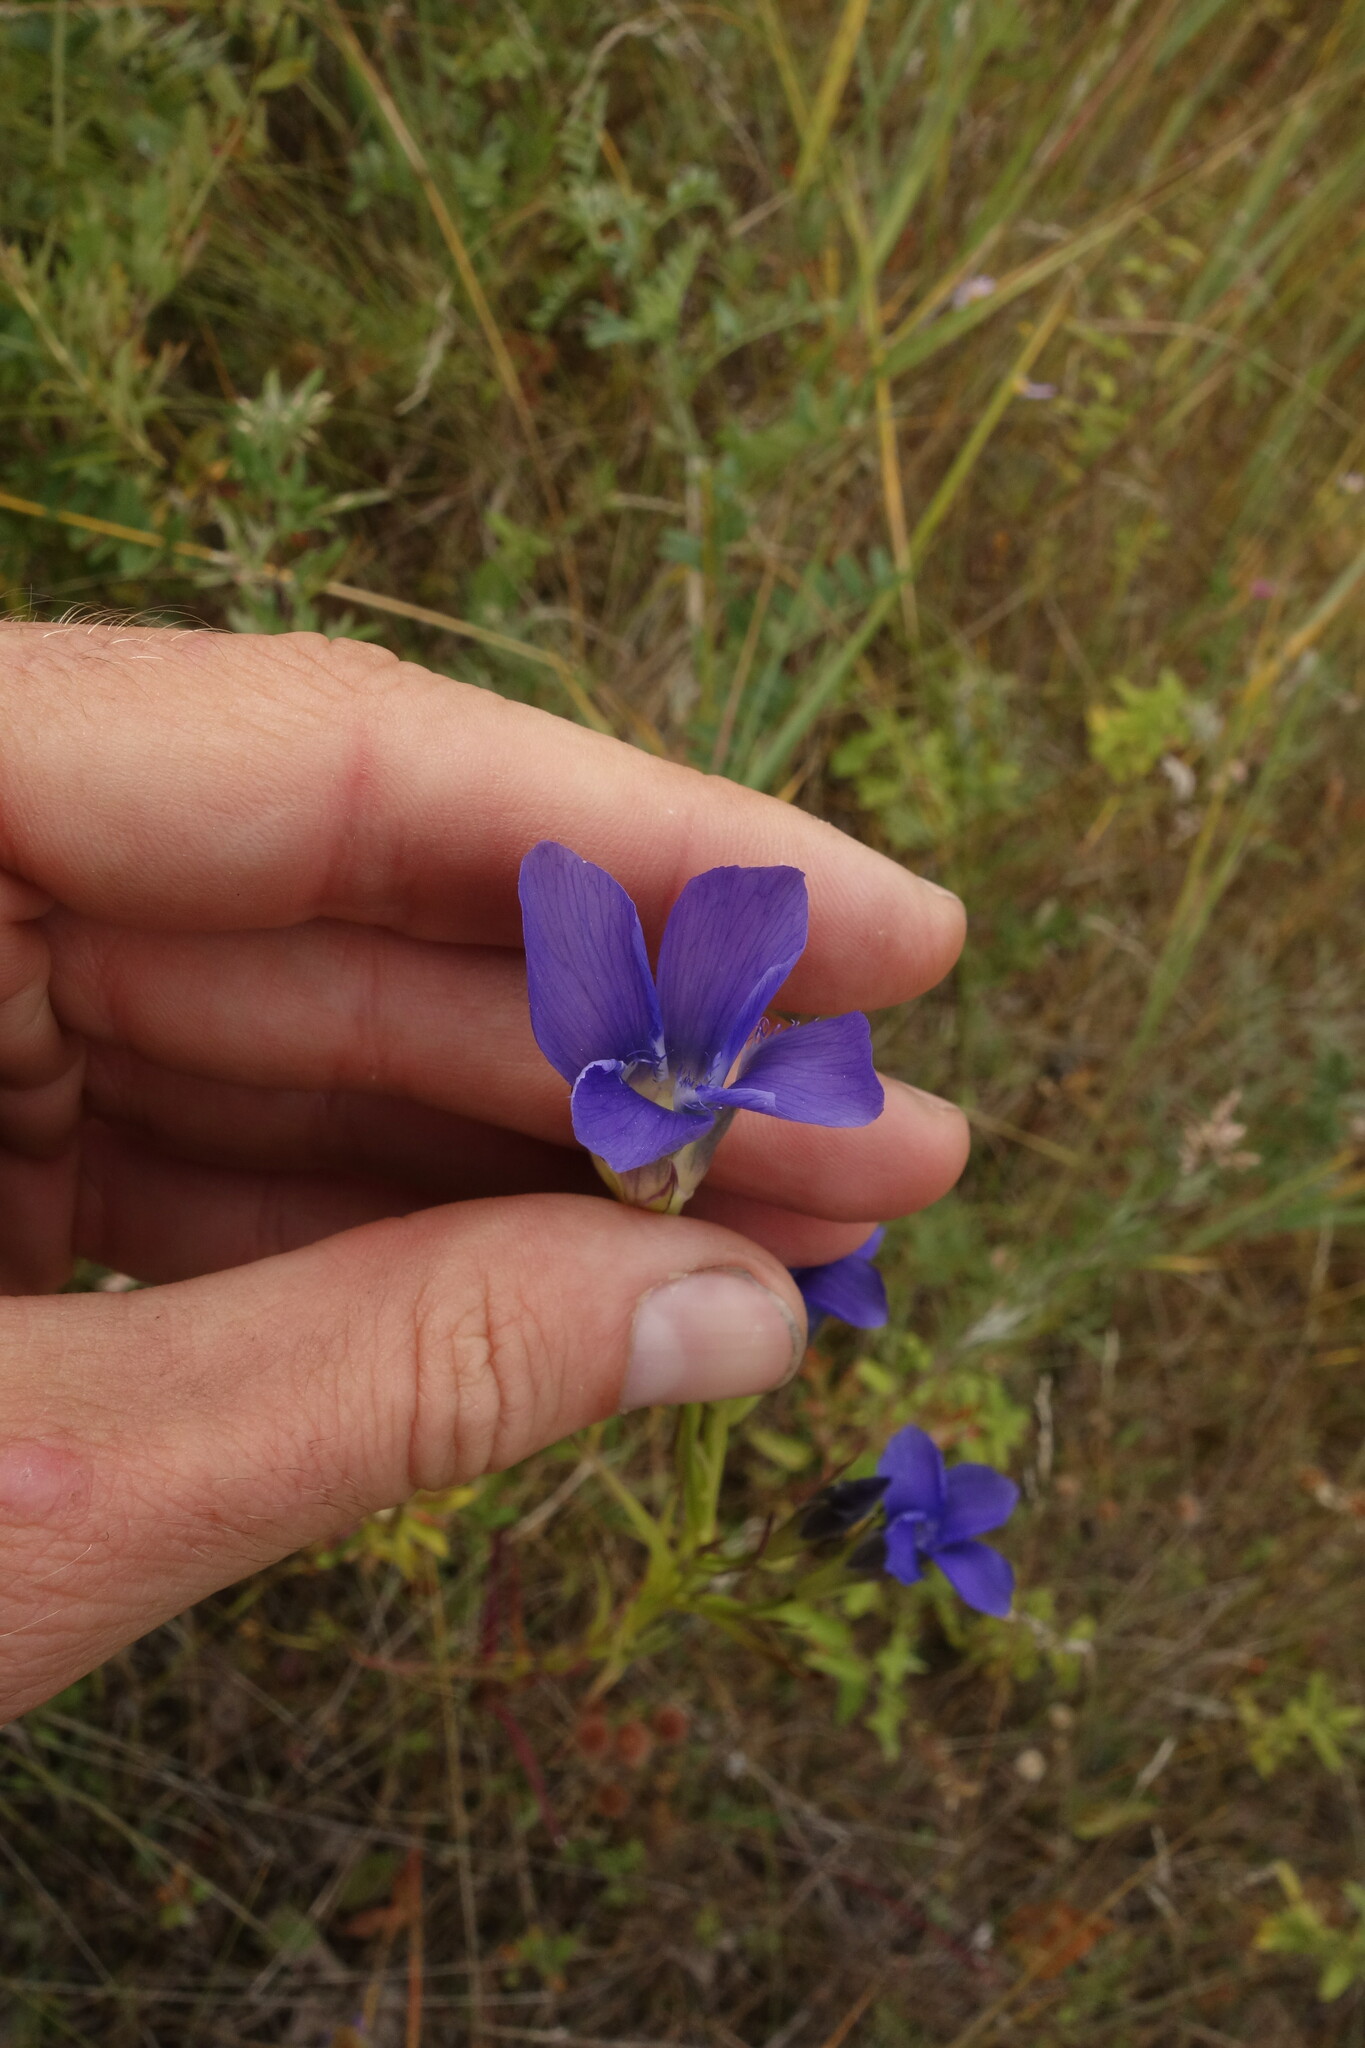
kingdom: Plantae
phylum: Tracheophyta
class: Magnoliopsida
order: Gentianales
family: Gentianaceae
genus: Gentianopsis
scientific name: Gentianopsis barbata
